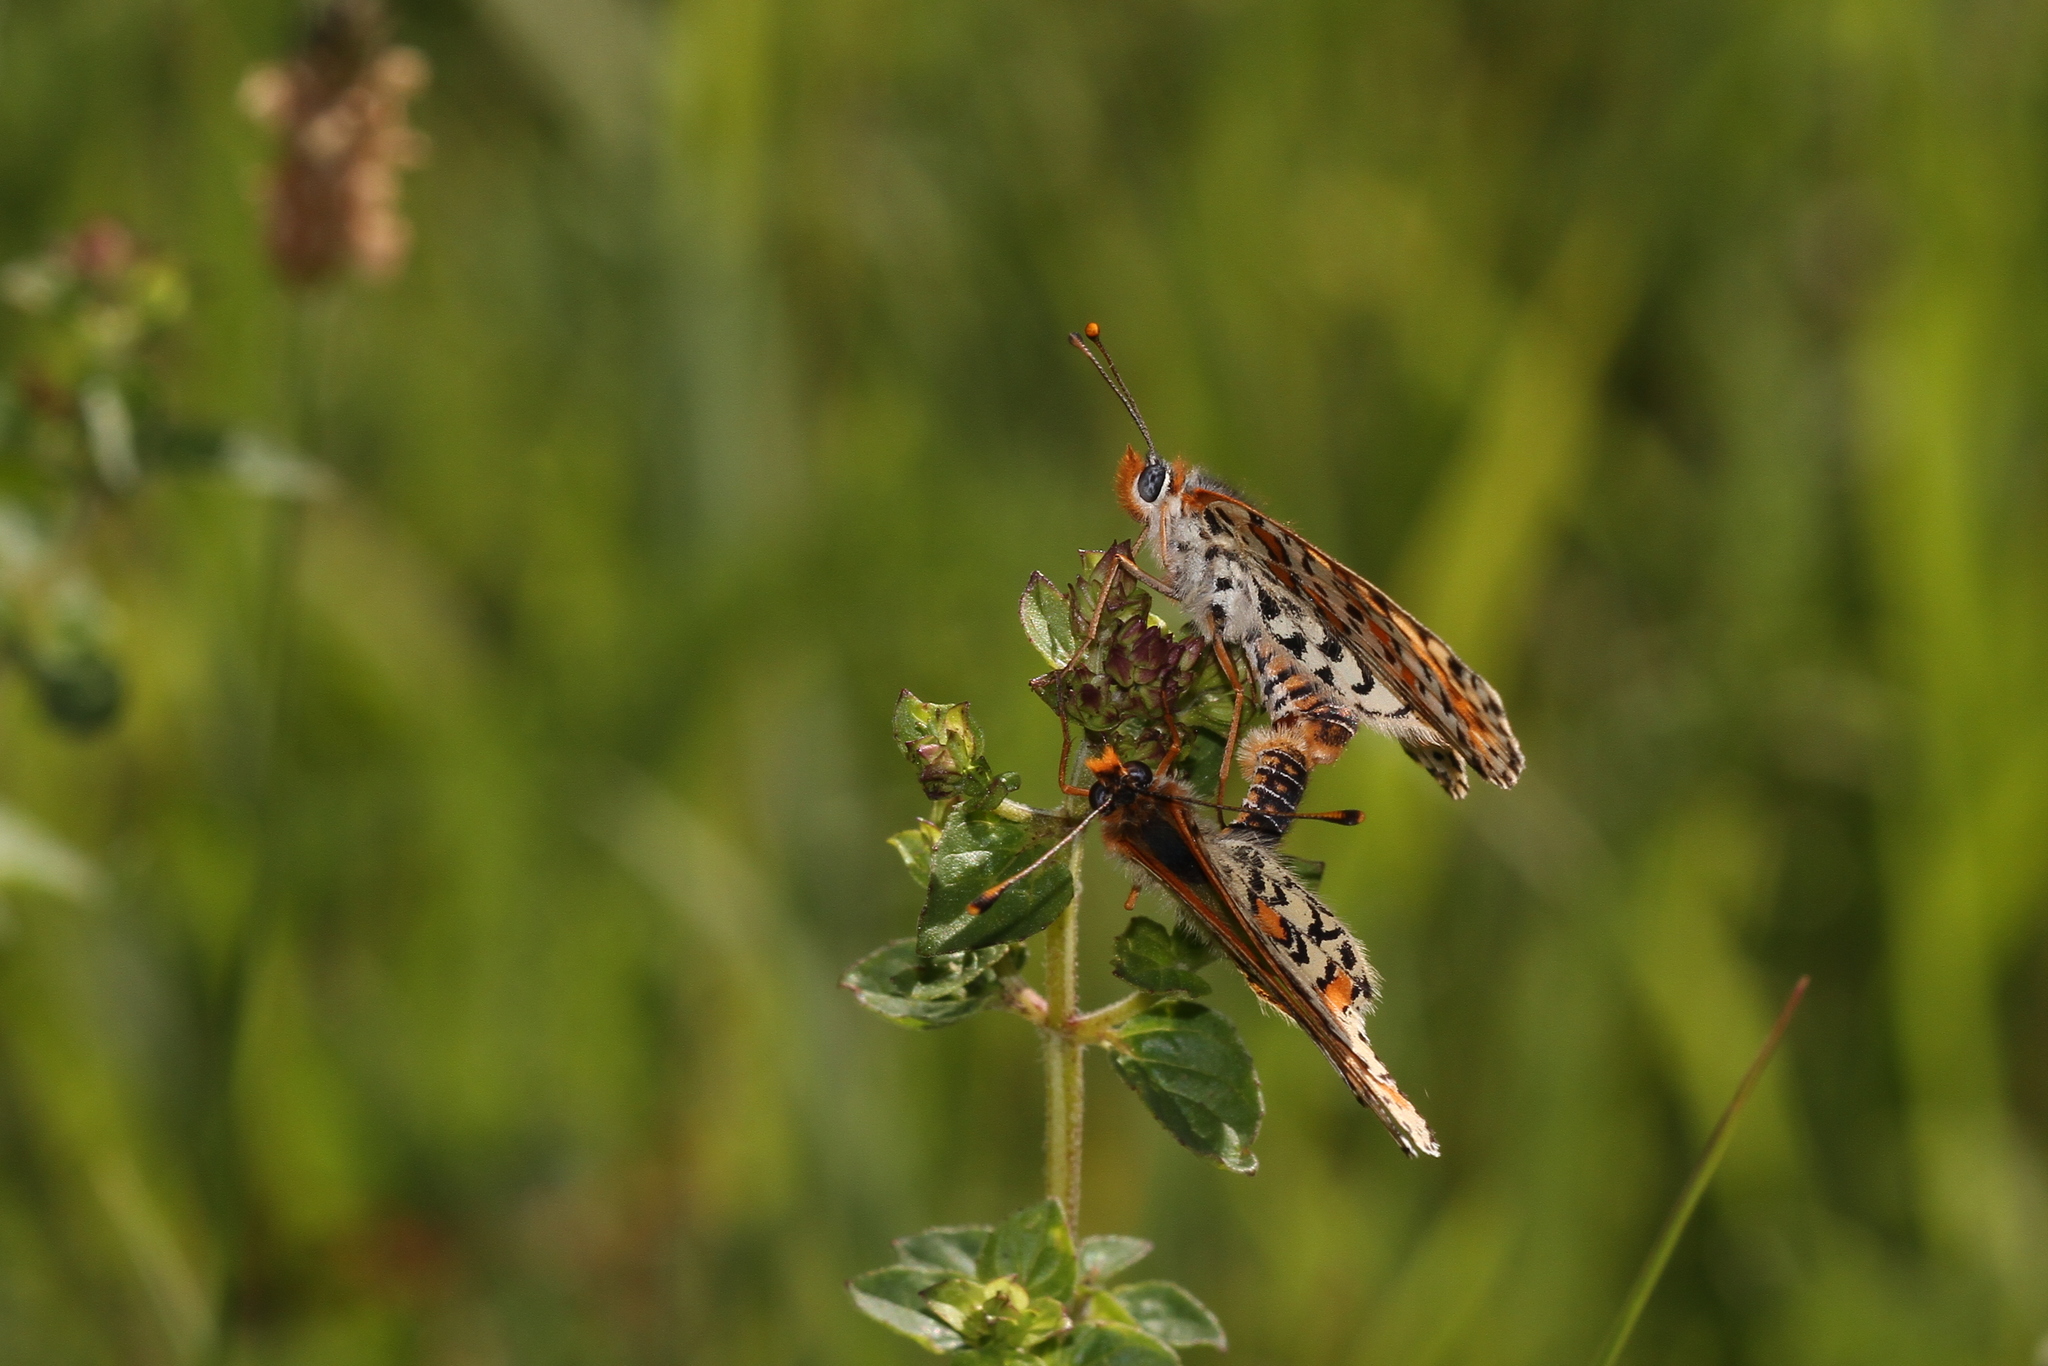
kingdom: Animalia
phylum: Arthropoda
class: Insecta
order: Lepidoptera
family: Nymphalidae
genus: Melitaea
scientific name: Melitaea didyma
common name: Spotted fritillary
